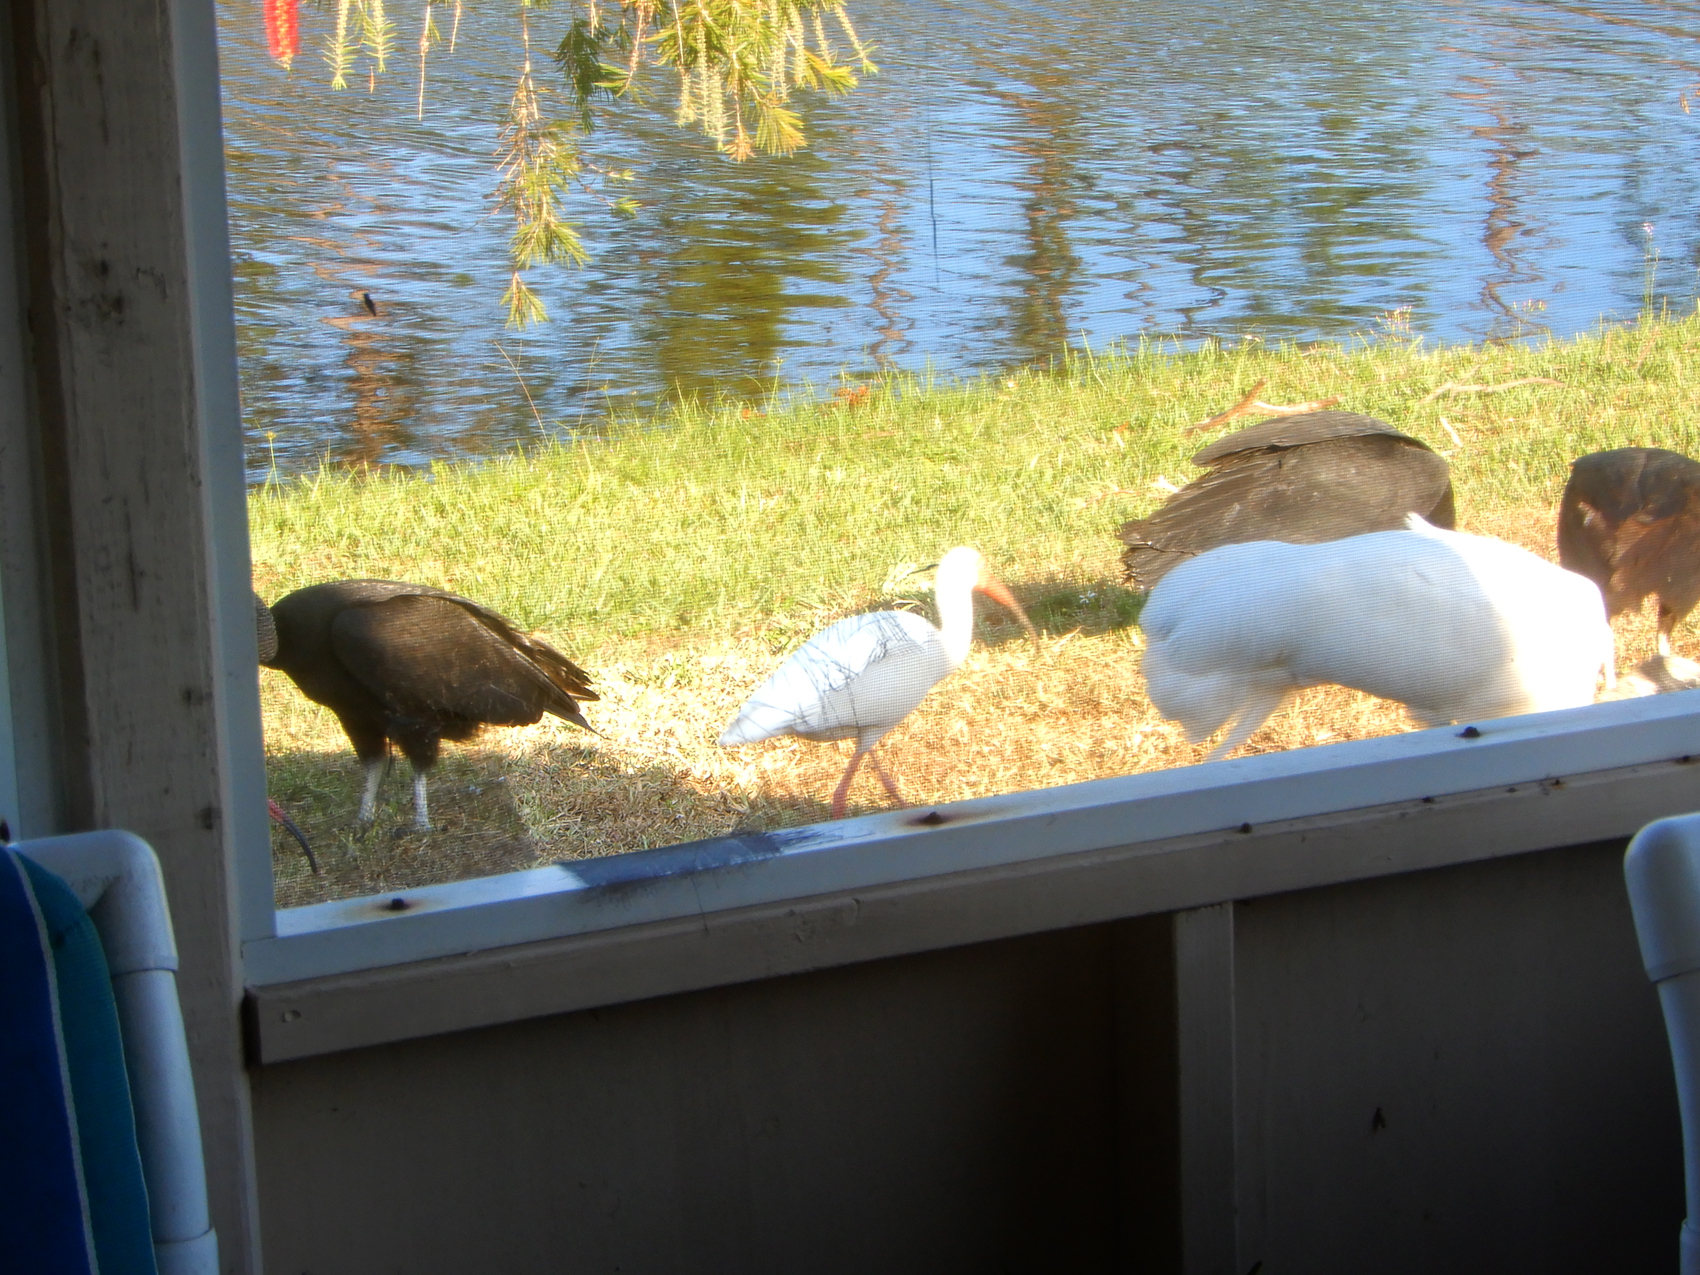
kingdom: Animalia
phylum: Chordata
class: Aves
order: Pelecaniformes
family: Threskiornithidae
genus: Eudocimus
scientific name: Eudocimus albus
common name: White ibis
